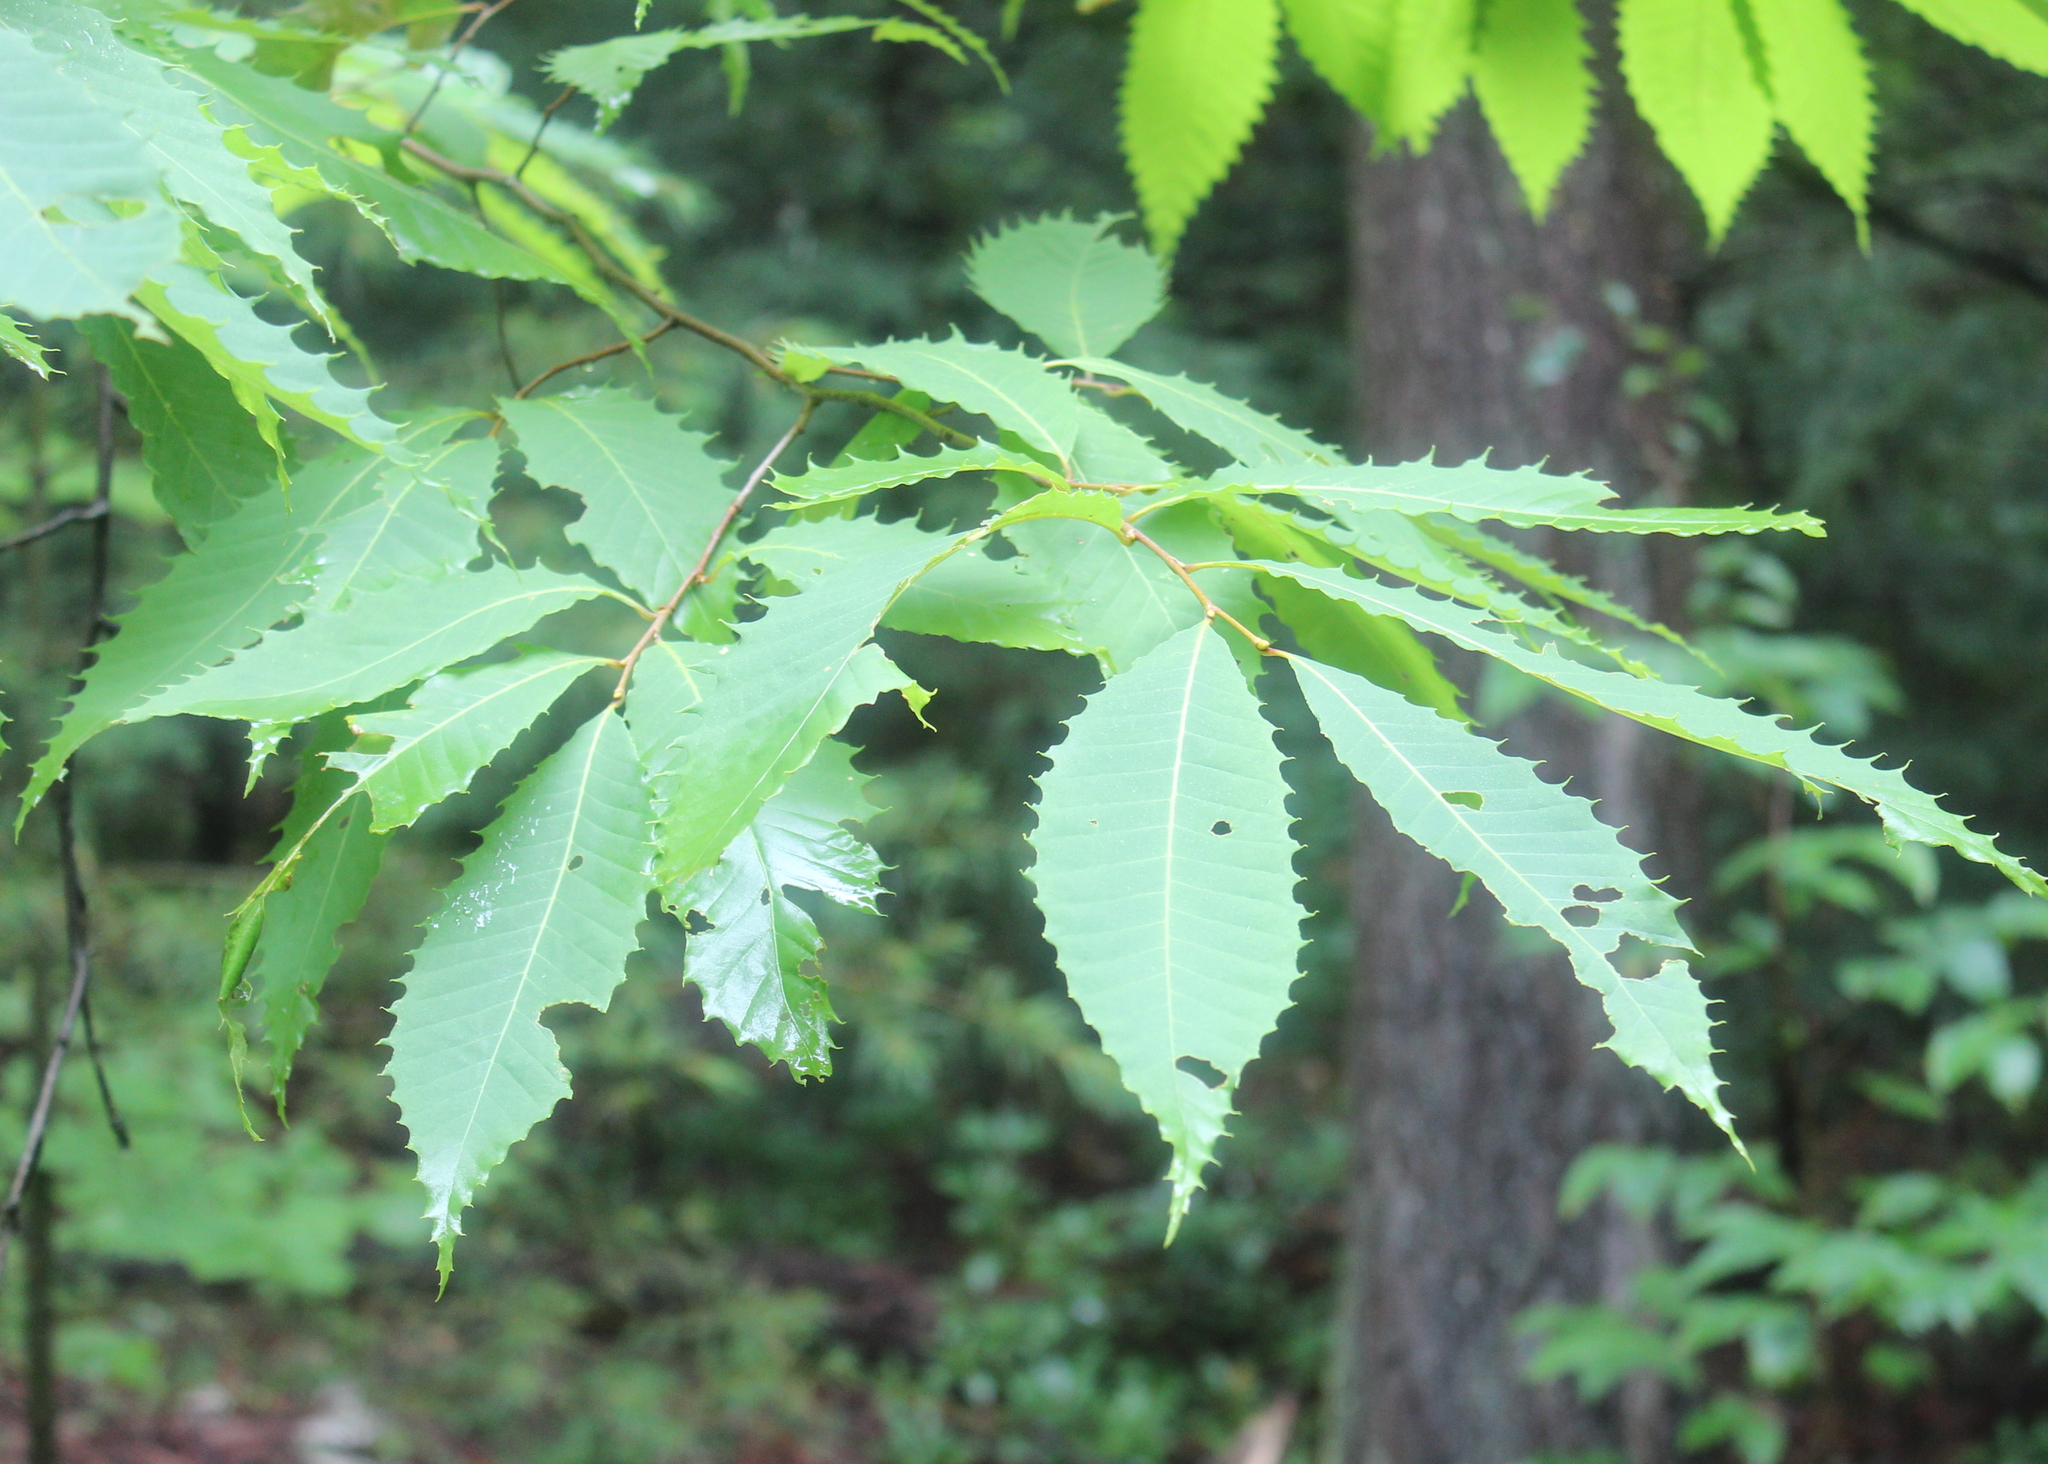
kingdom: Plantae
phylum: Tracheophyta
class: Magnoliopsida
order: Fagales
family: Fagaceae
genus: Castanea
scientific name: Castanea dentata
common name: American chestnut
